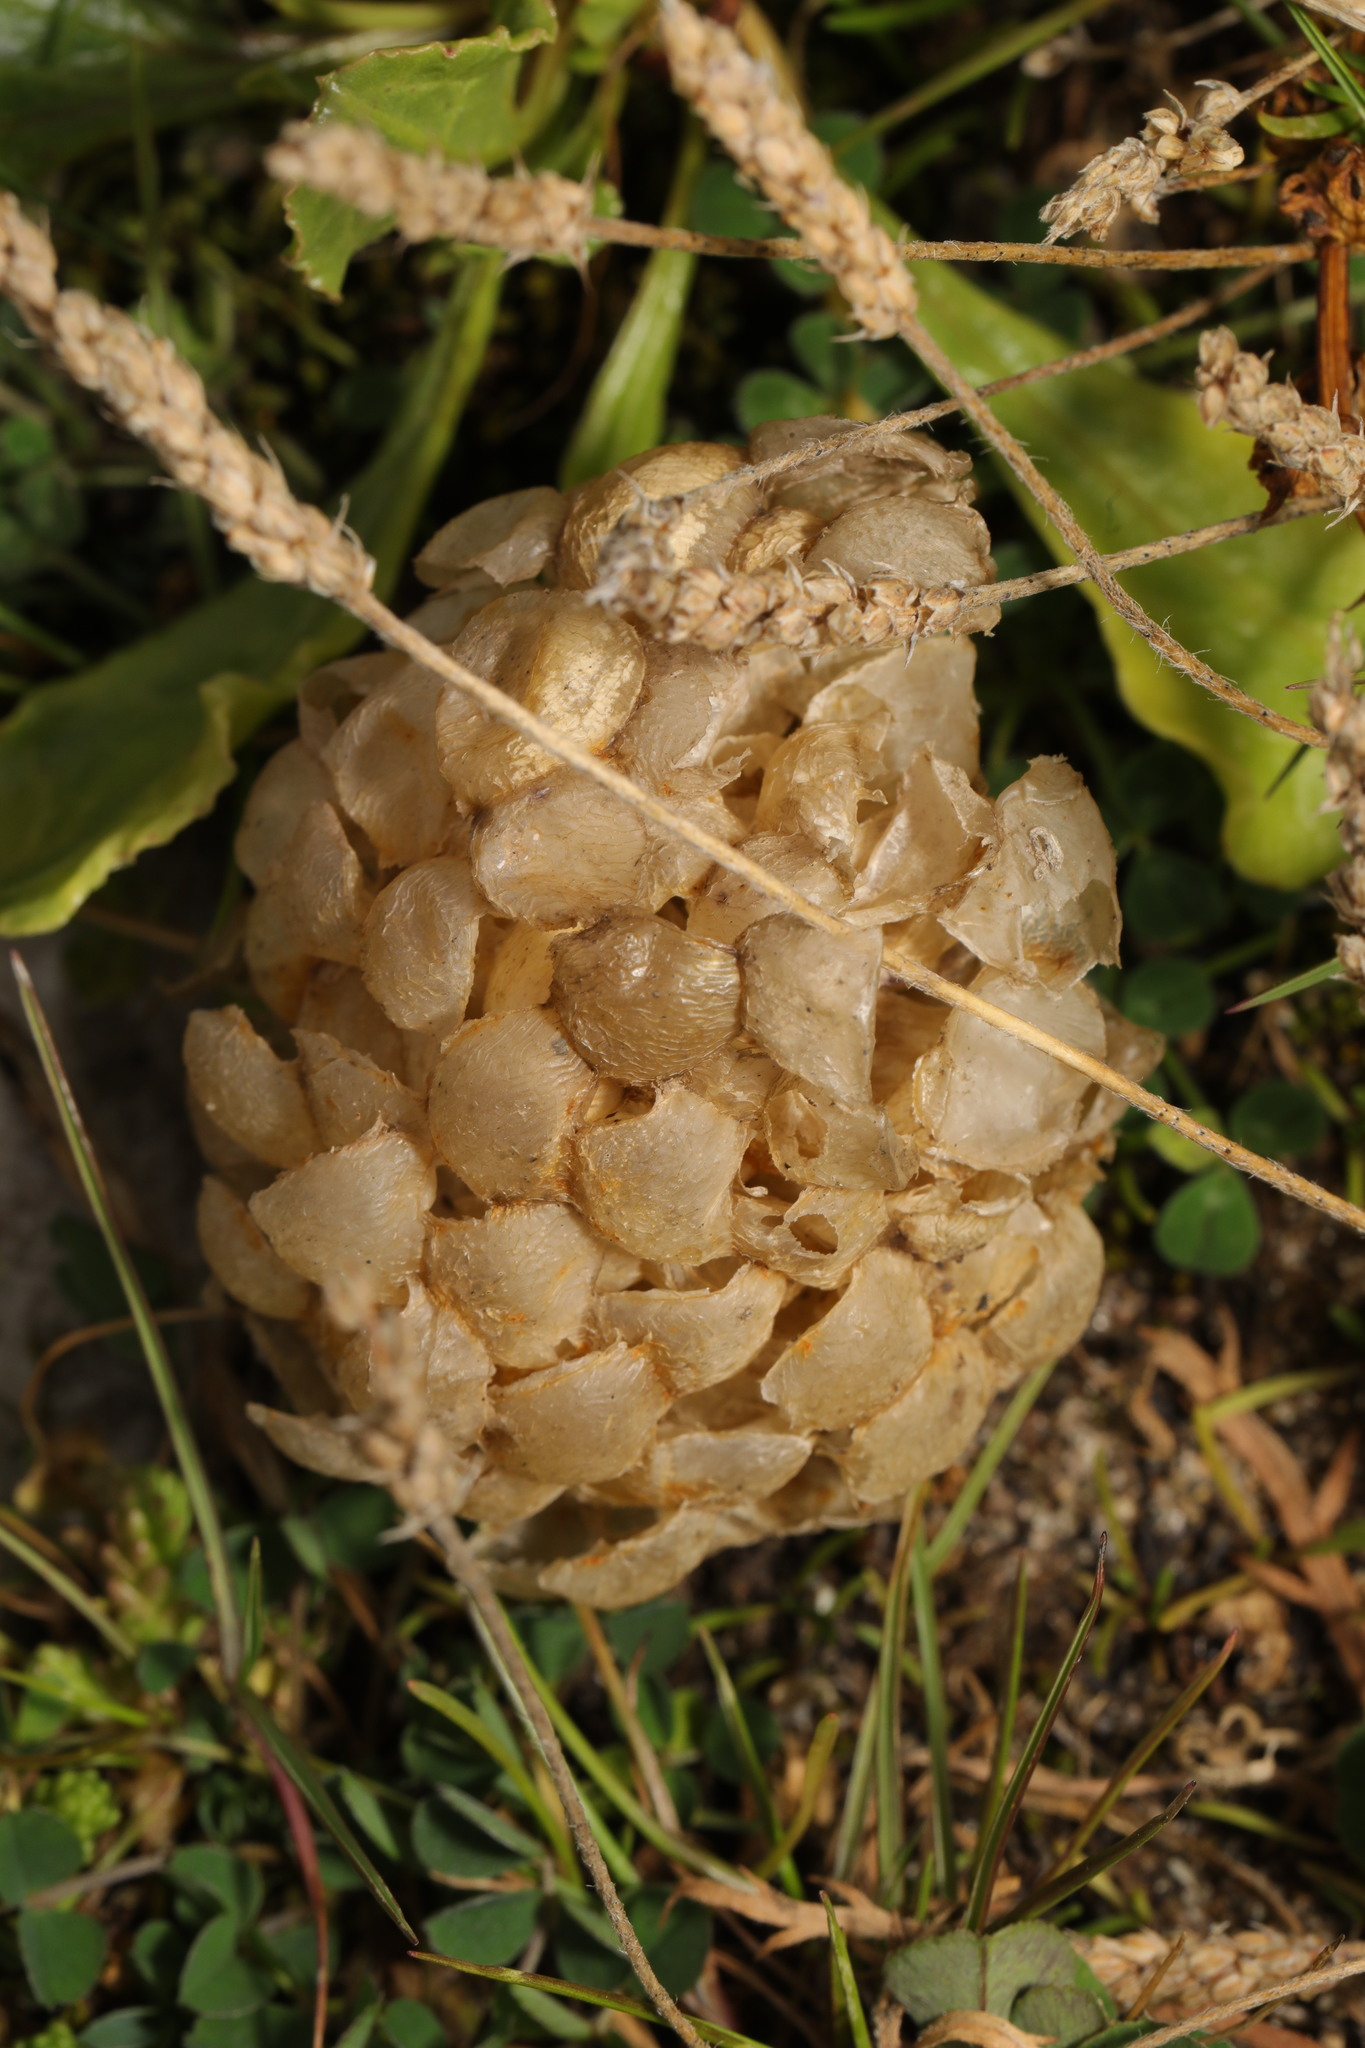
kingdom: Animalia
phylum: Mollusca
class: Gastropoda
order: Neogastropoda
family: Buccinidae
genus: Buccinum
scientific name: Buccinum undatum
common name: Common whelk
